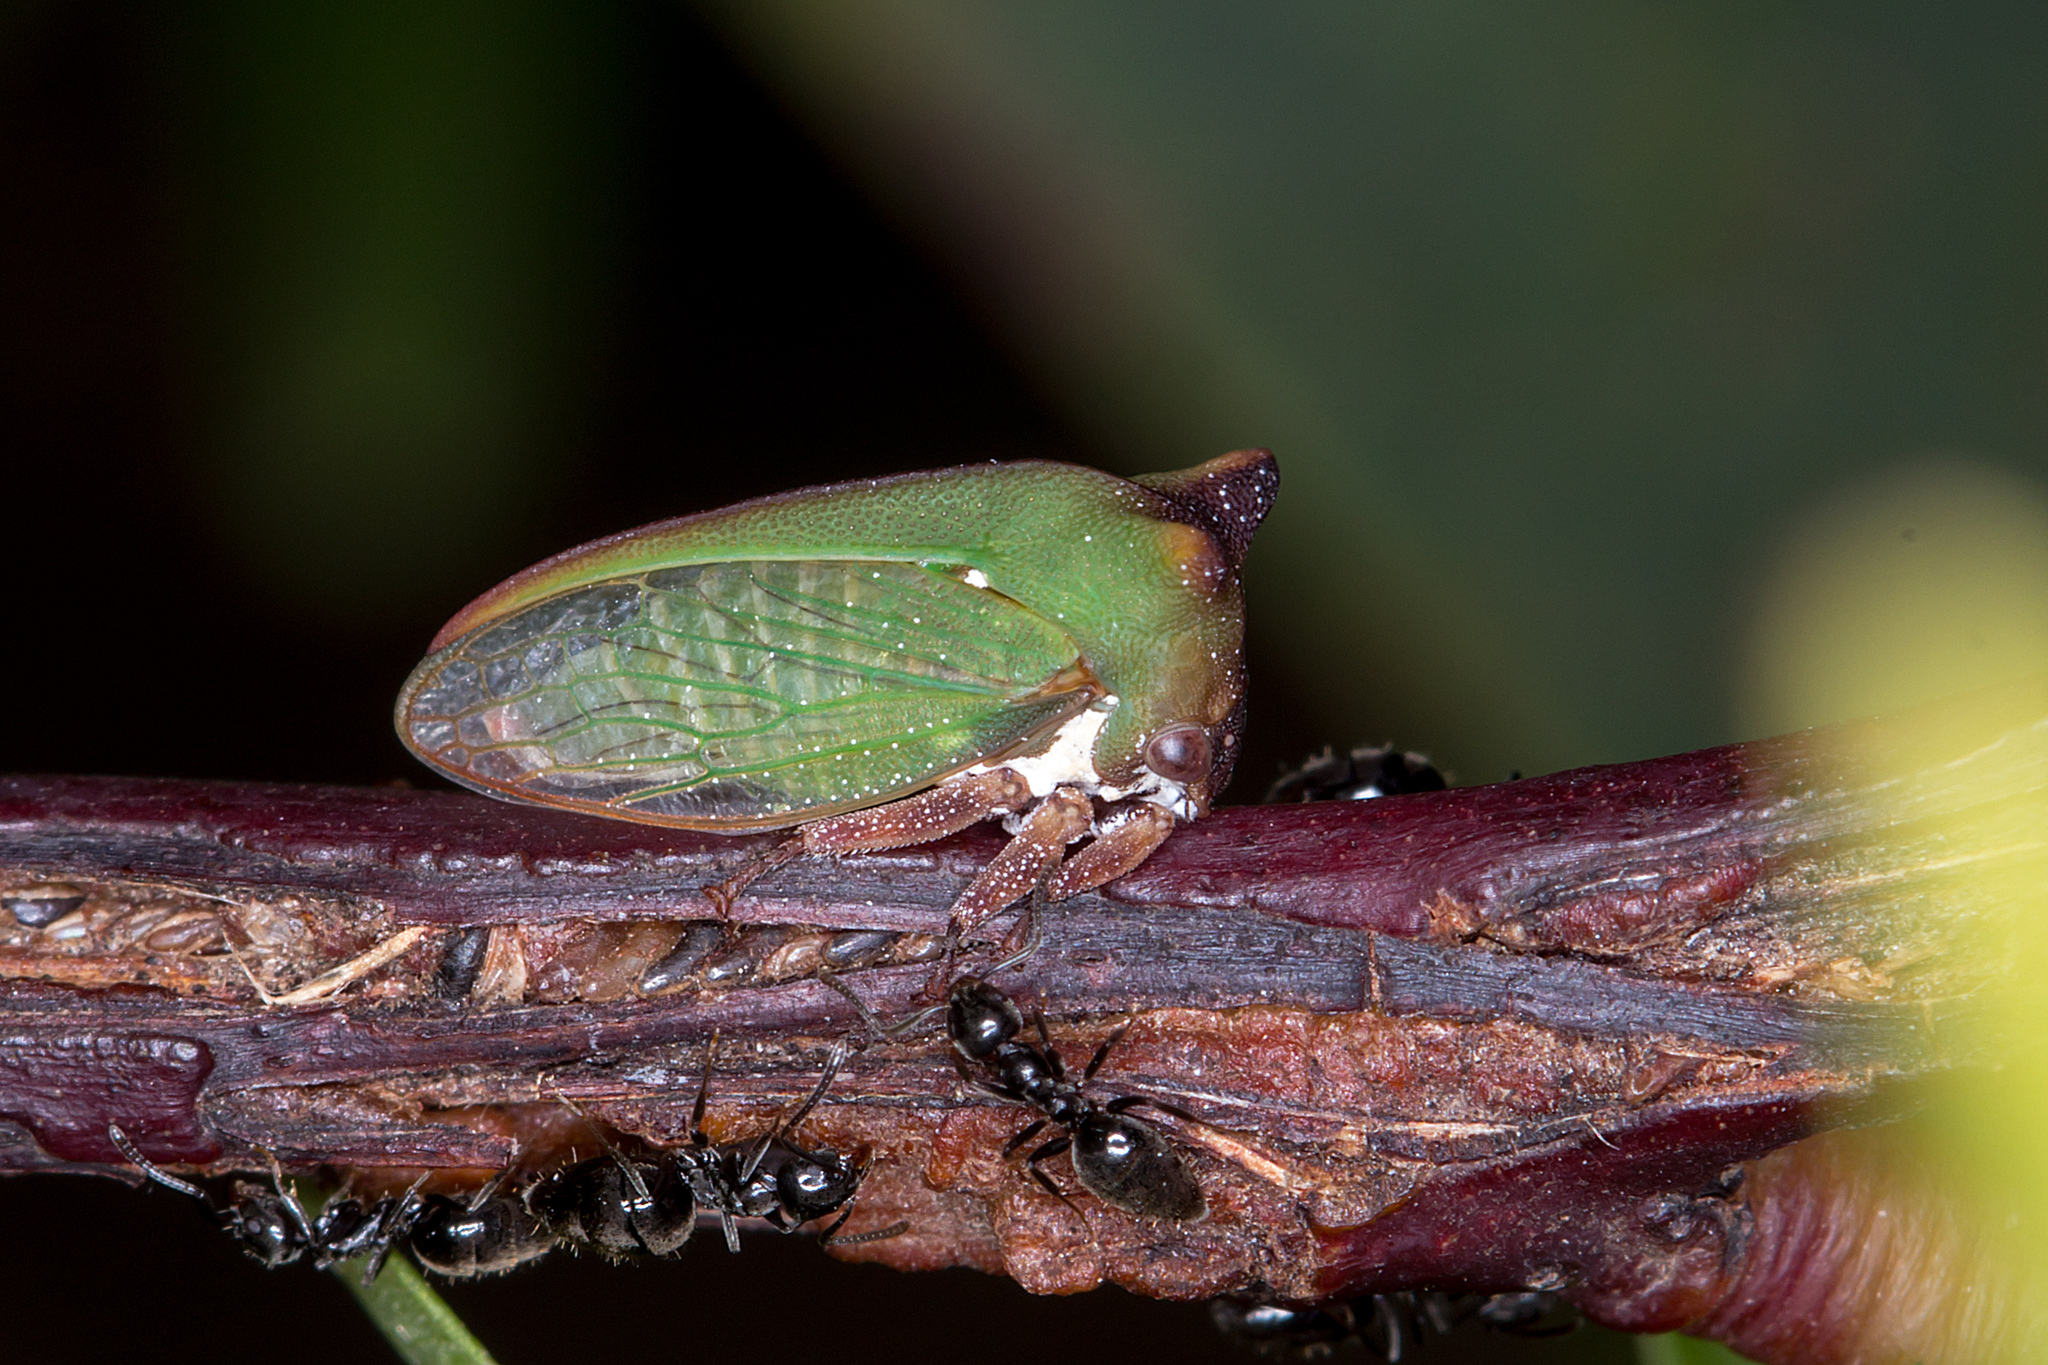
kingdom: Animalia
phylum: Arthropoda
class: Insecta
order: Hemiptera
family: Membracidae
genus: Sextius
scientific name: Sextius virescens
